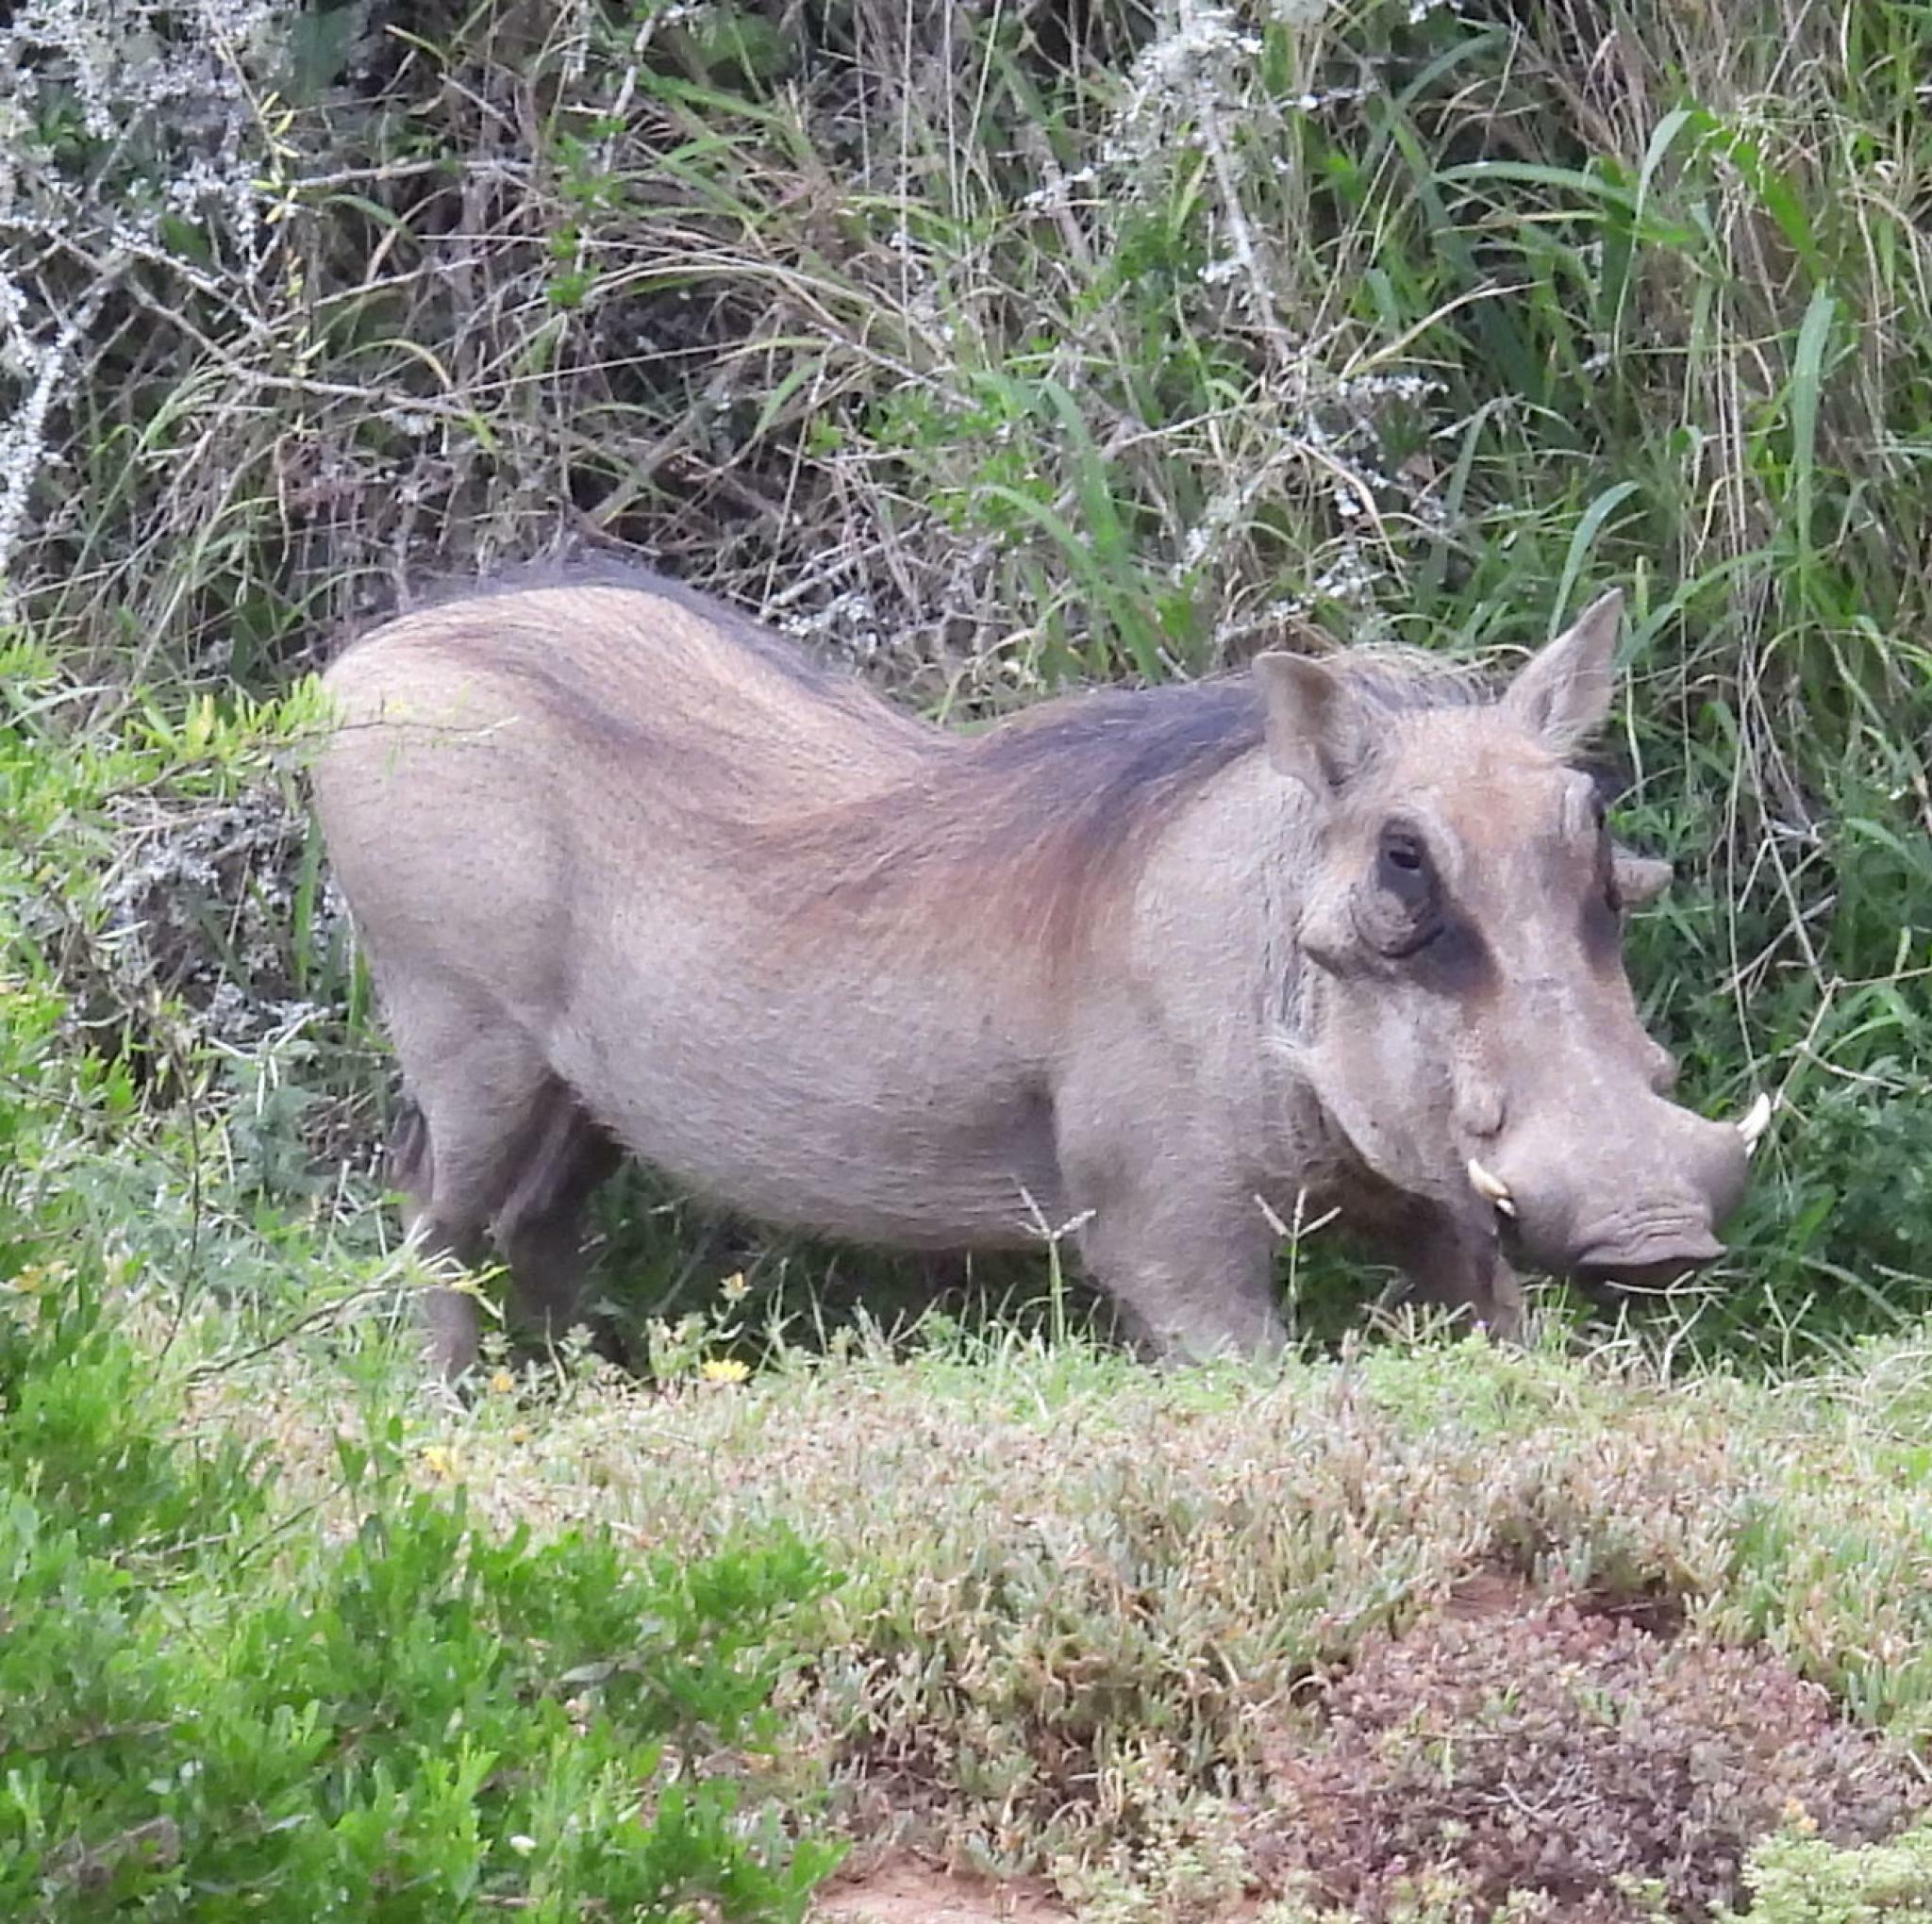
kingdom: Animalia
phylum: Chordata
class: Mammalia
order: Artiodactyla
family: Suidae
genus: Phacochoerus
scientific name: Phacochoerus africanus
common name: Common warthog
